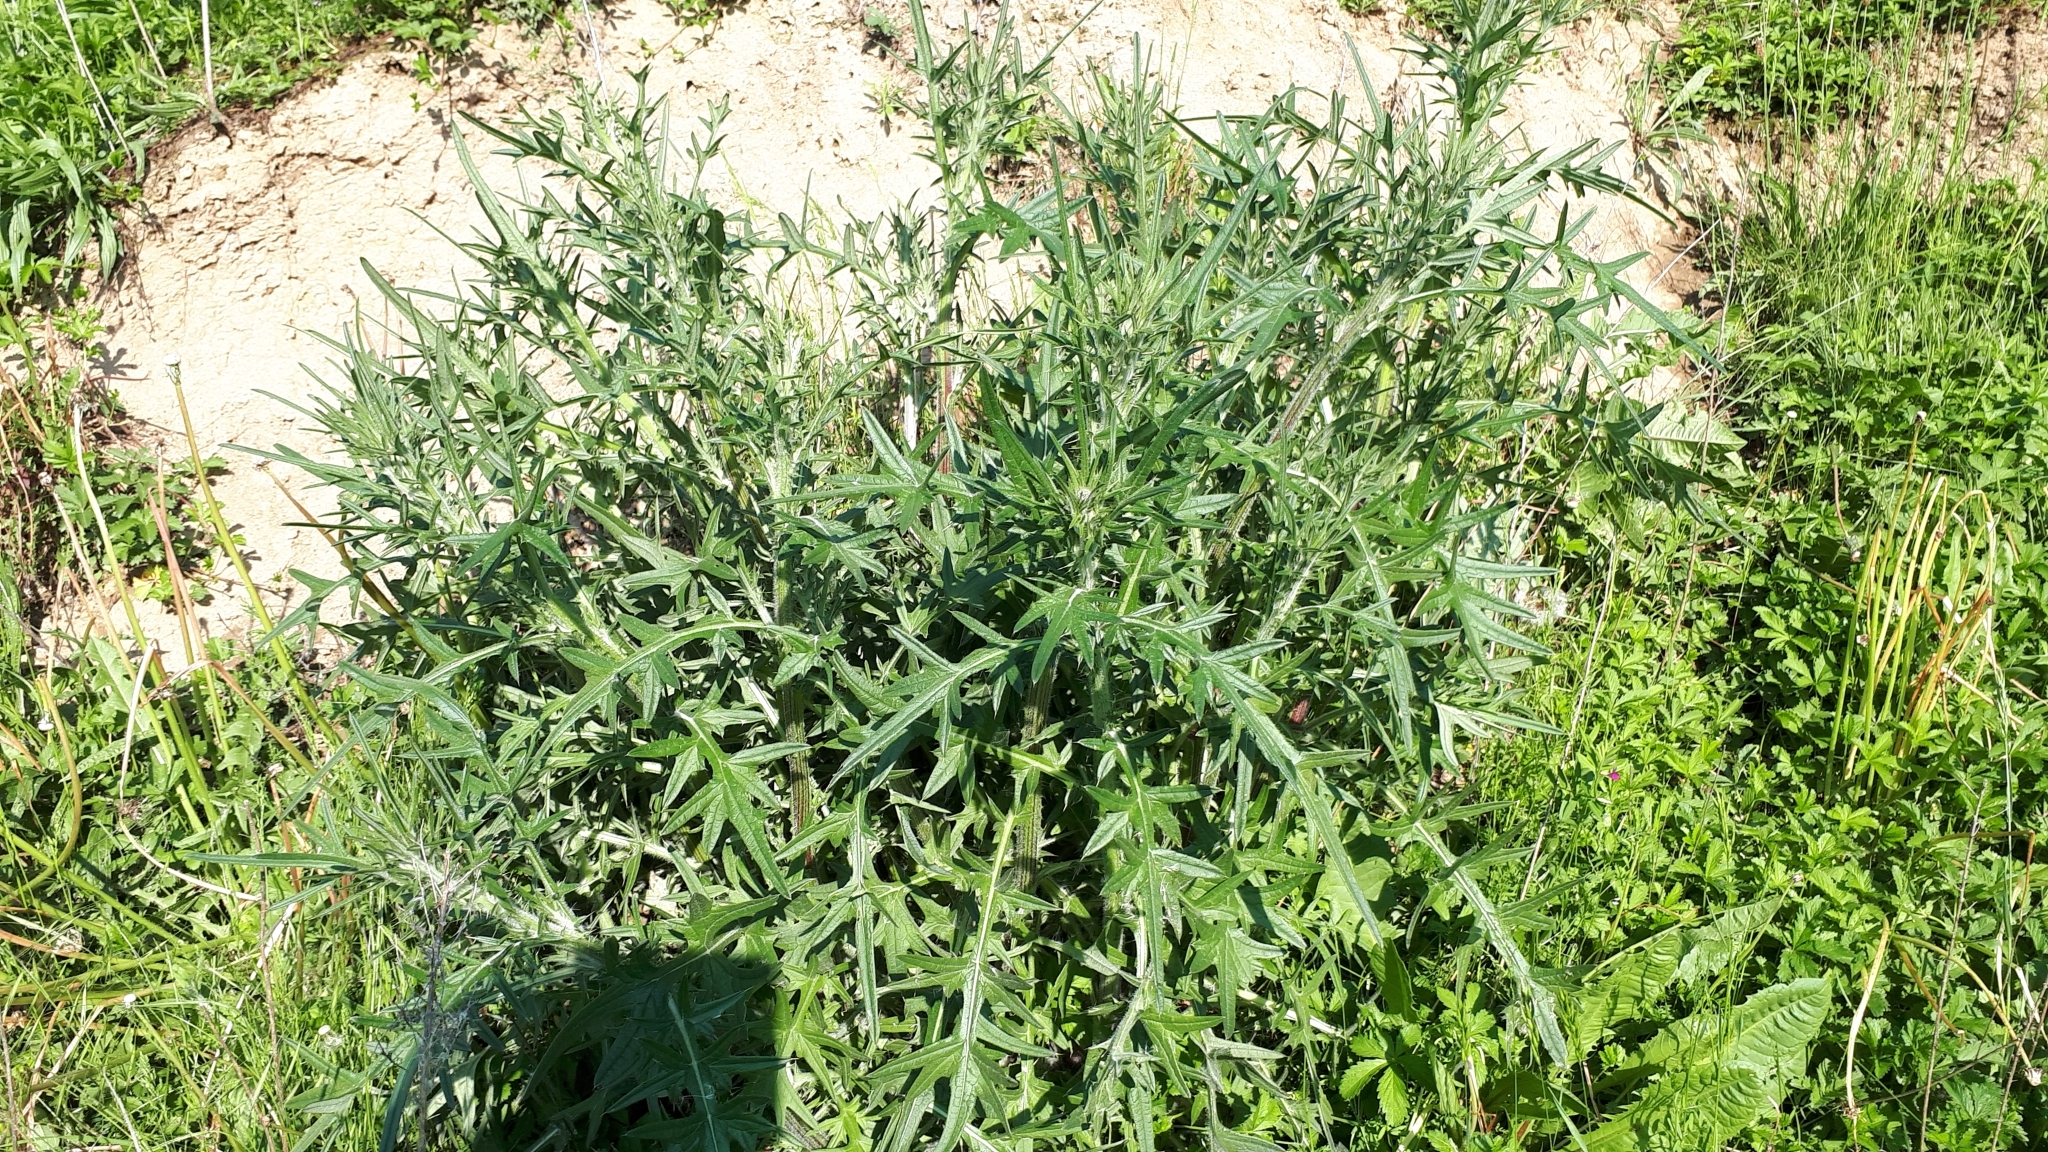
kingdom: Plantae
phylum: Tracheophyta
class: Magnoliopsida
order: Asterales
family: Asteraceae
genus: Cirsium
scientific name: Cirsium vulgare
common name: Bull thistle
